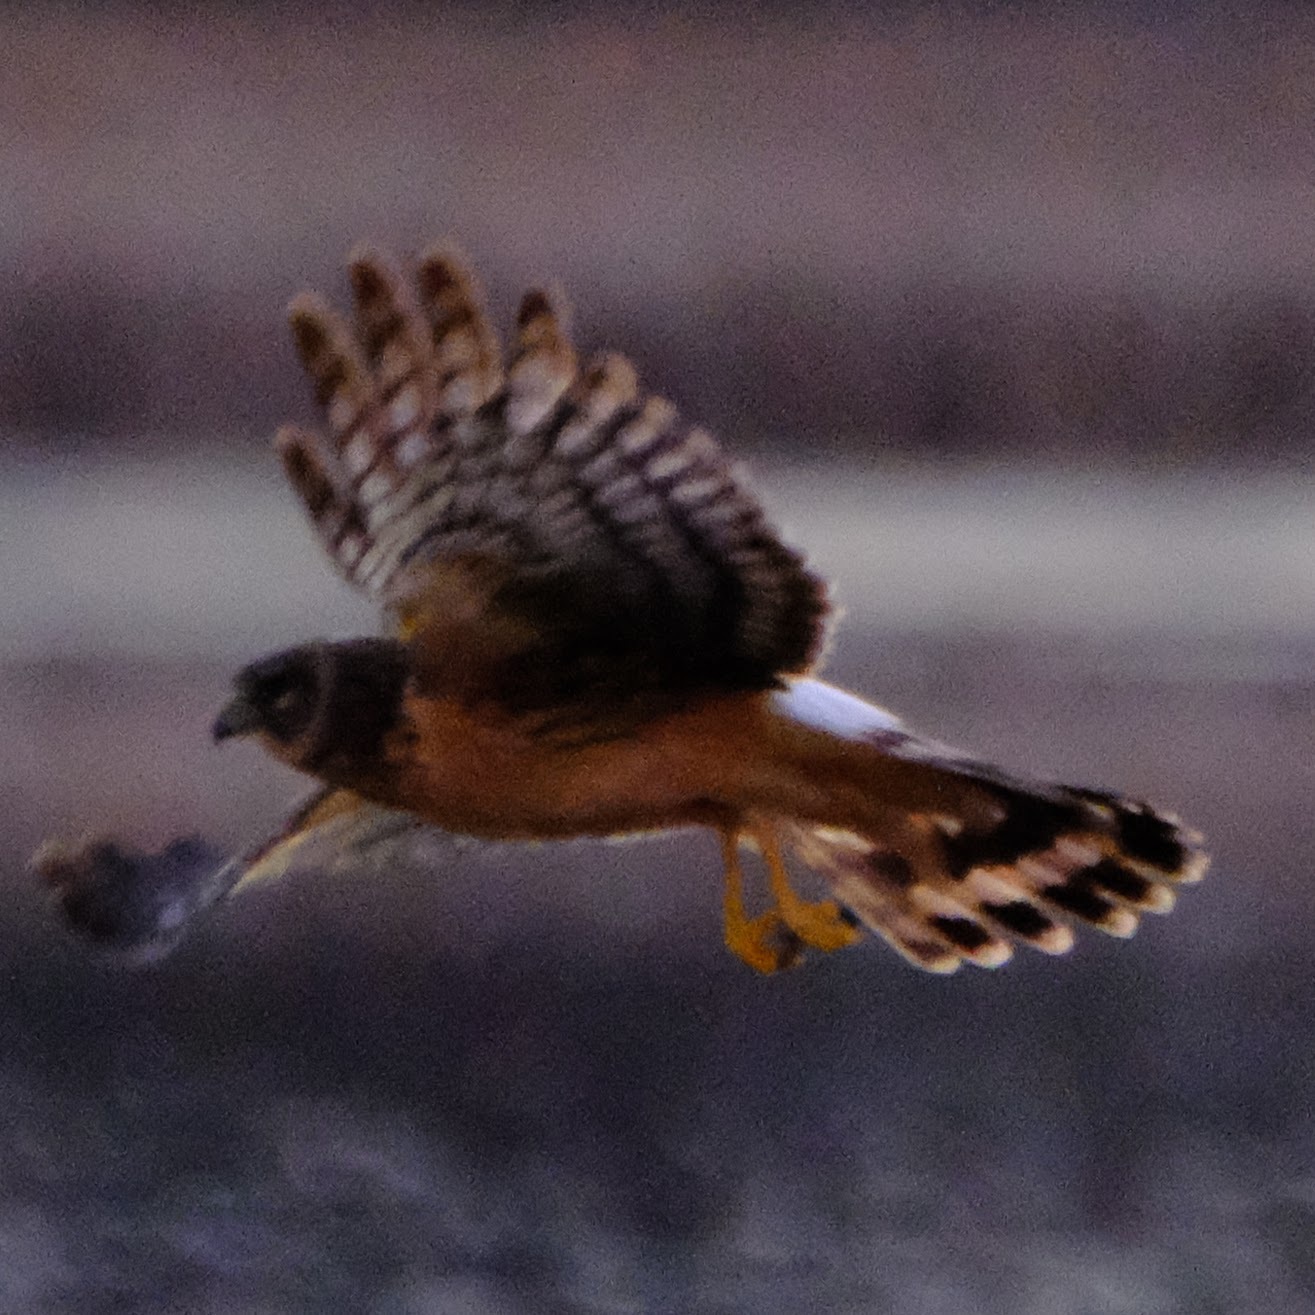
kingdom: Animalia
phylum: Chordata
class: Aves
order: Accipitriformes
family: Accipitridae
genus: Circus
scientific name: Circus cyaneus
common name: Hen harrier
